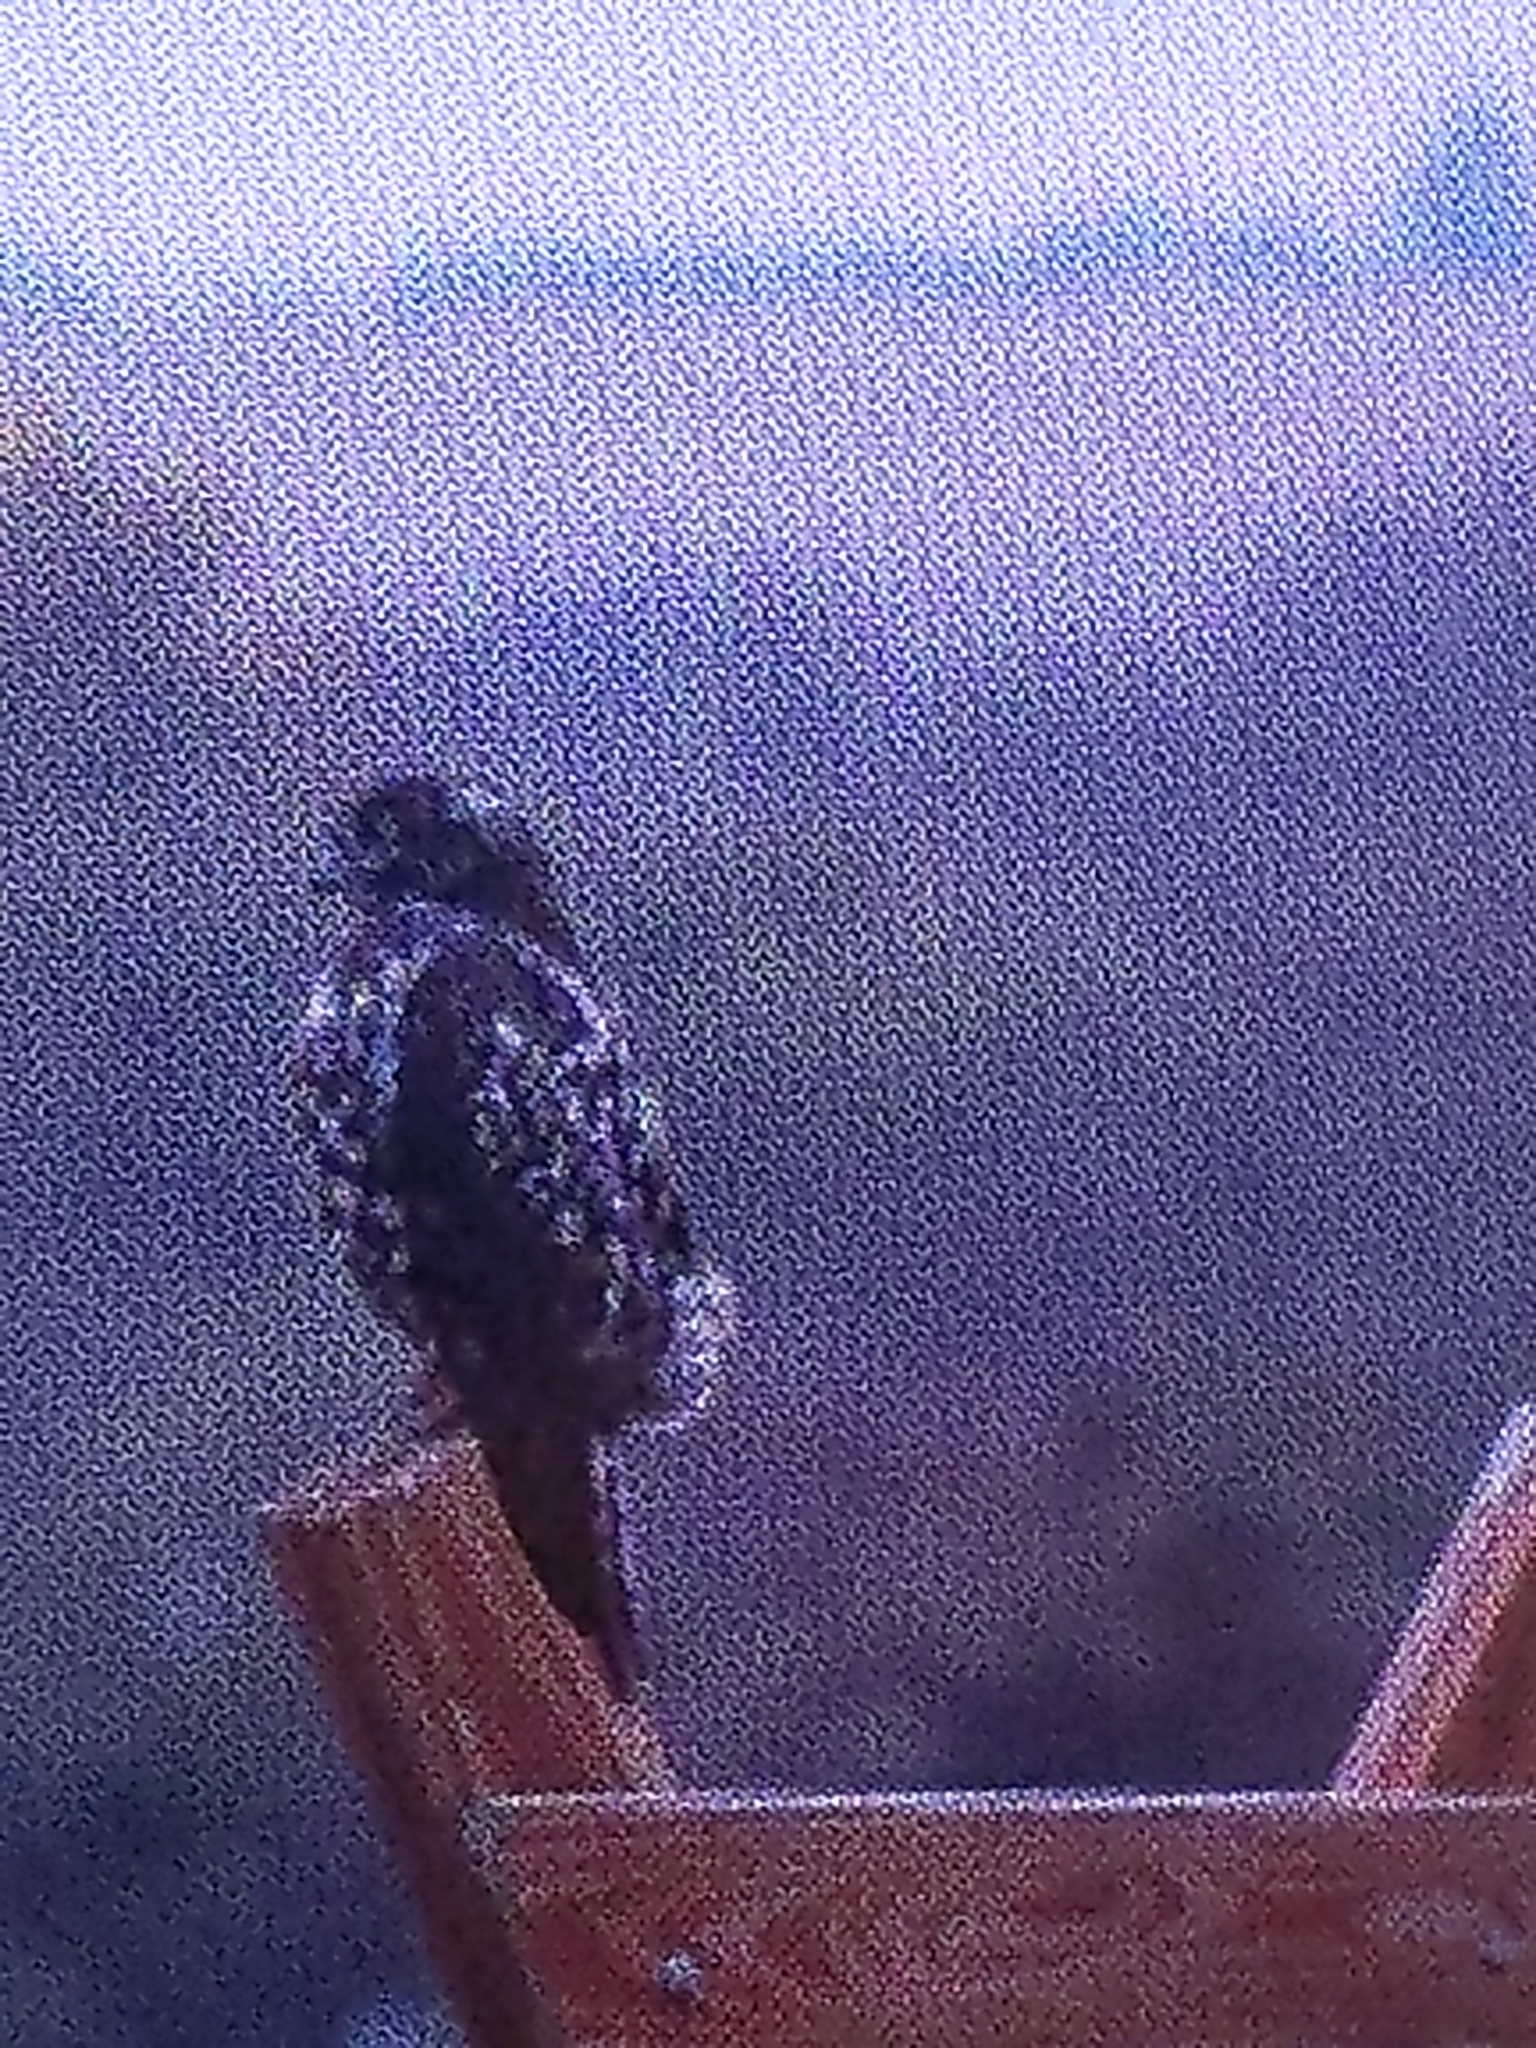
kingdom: Animalia
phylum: Chordata
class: Aves
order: Accipitriformes
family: Accipitridae
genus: Buteo
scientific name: Buteo jamaicensis
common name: Red-tailed hawk
